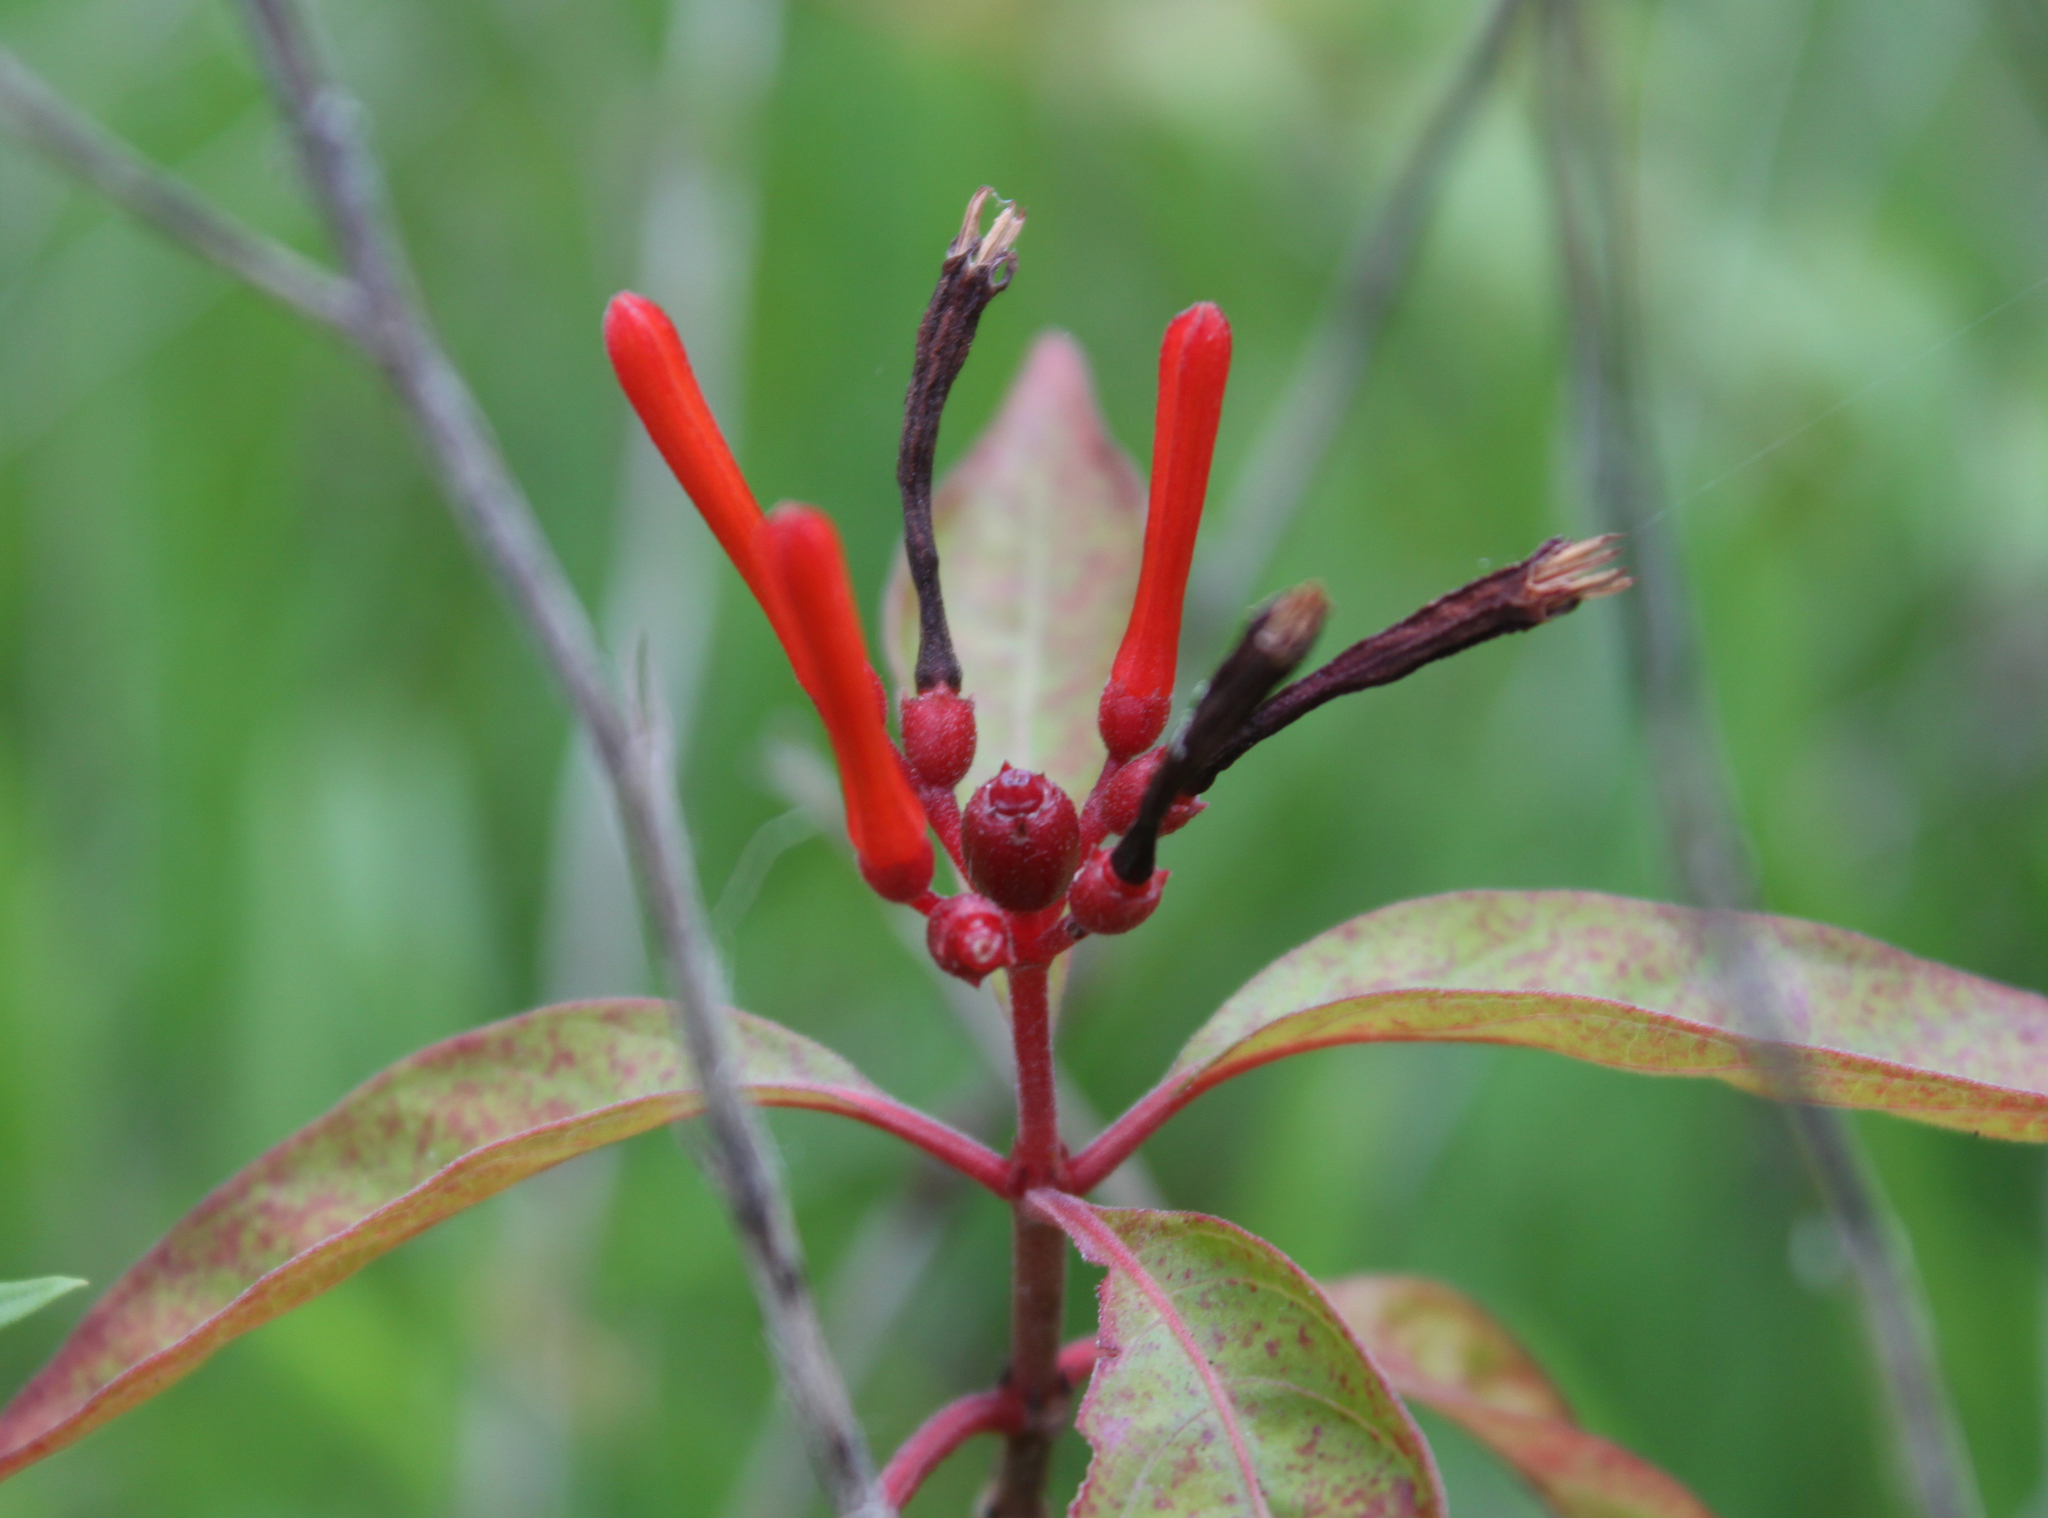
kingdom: Plantae
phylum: Tracheophyta
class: Magnoliopsida
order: Gentianales
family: Rubiaceae
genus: Hamelia
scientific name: Hamelia patens
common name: Redhead
